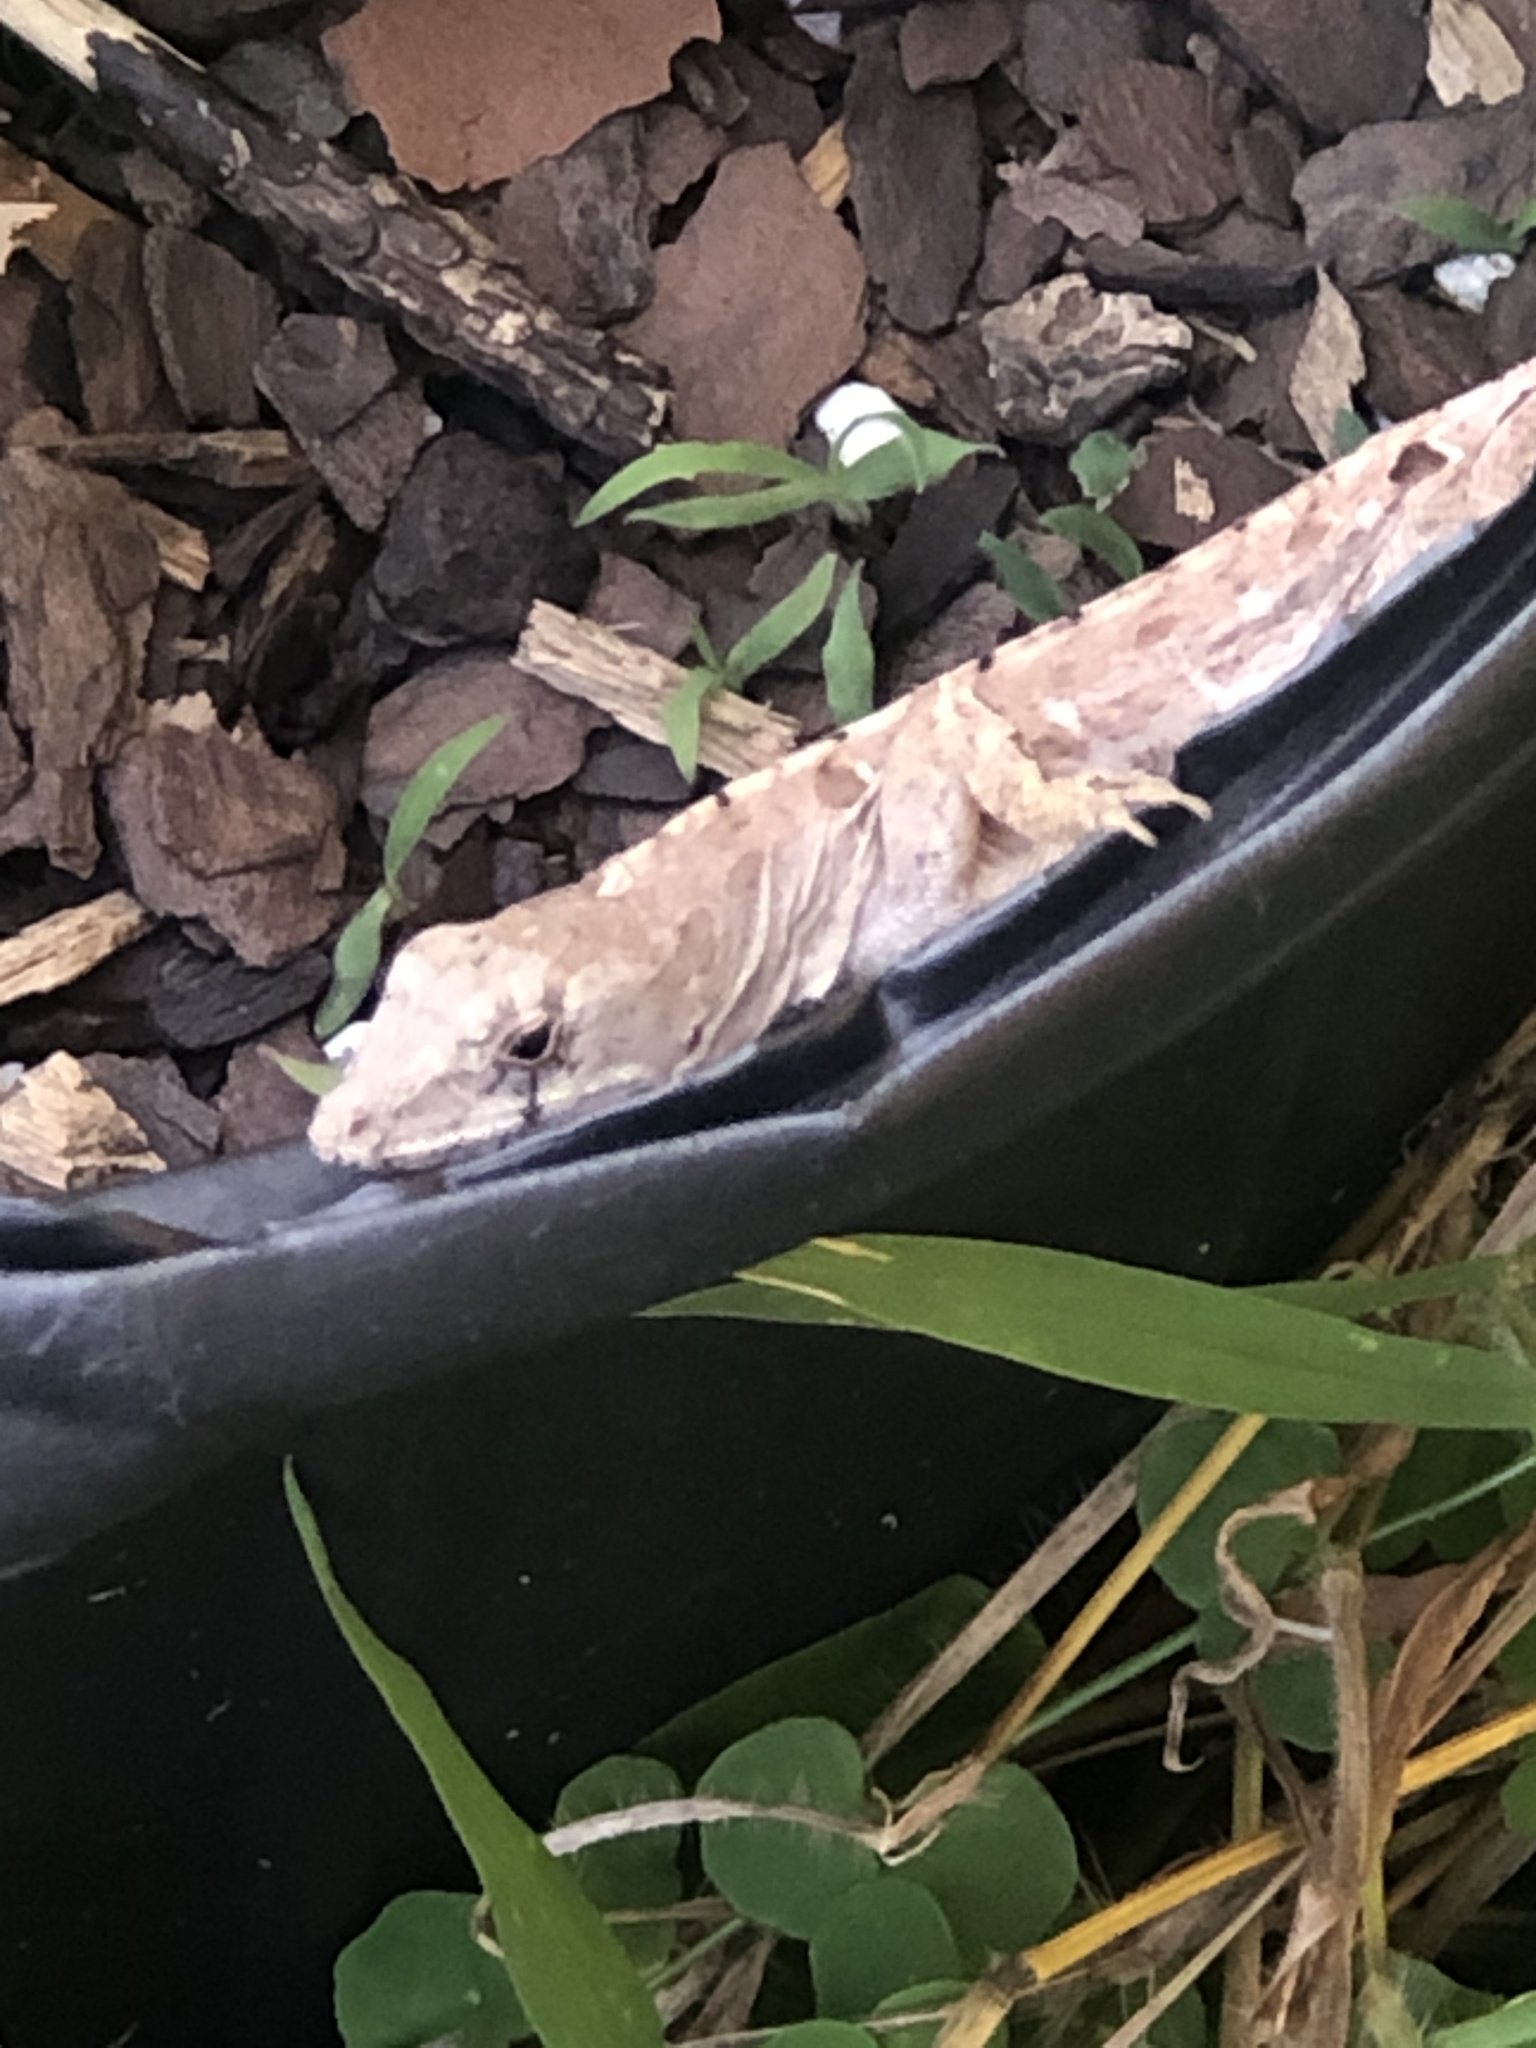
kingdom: Animalia
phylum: Chordata
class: Squamata
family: Dactyloidae
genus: Anolis
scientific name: Anolis sagrei
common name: Brown anole
